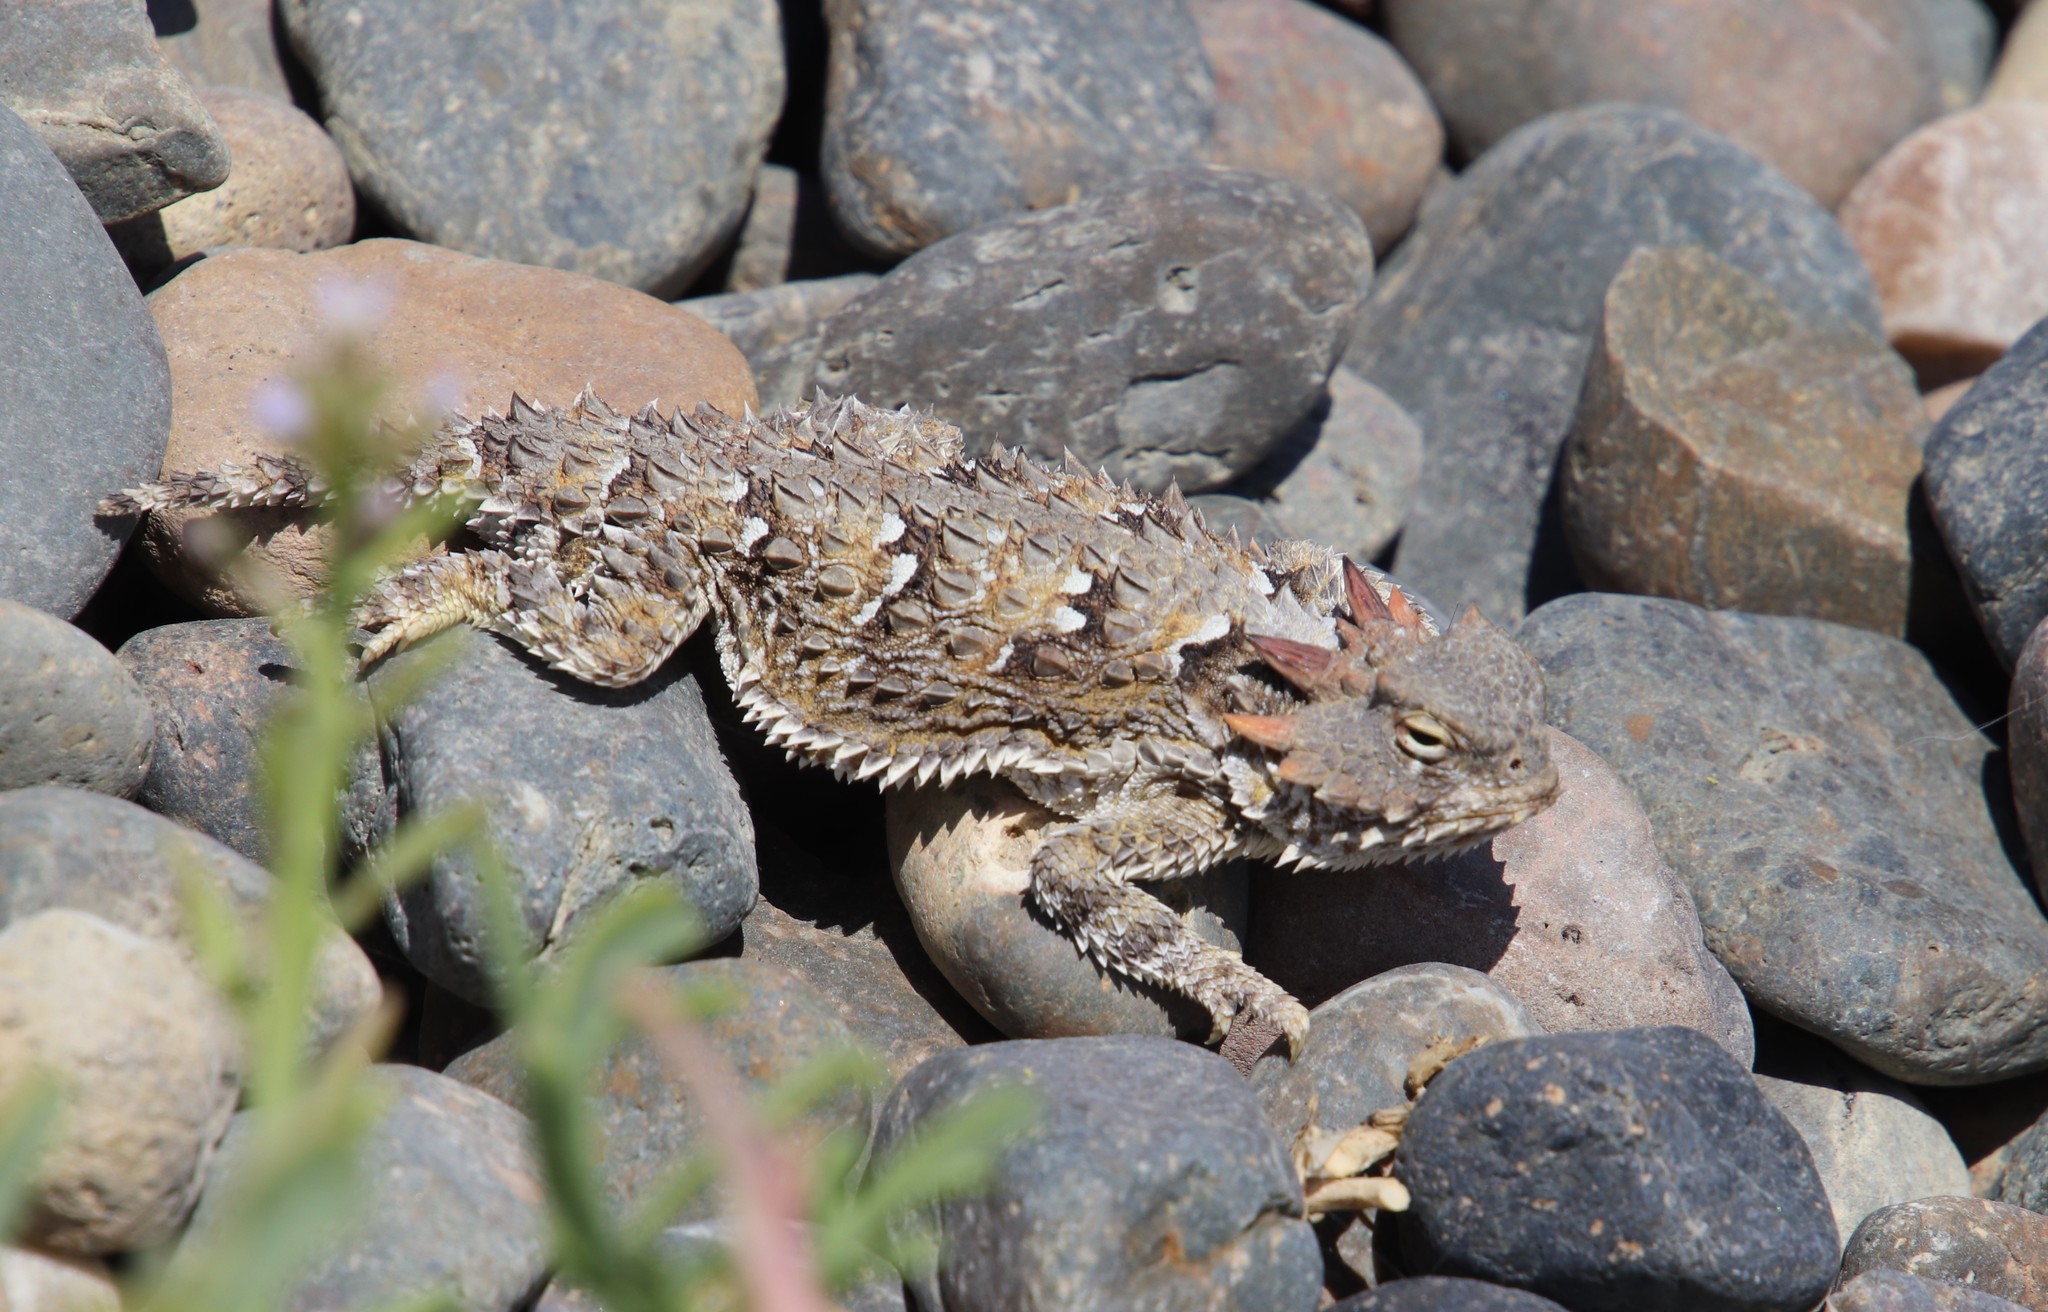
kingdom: Animalia
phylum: Chordata
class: Squamata
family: Phrynosomatidae
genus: Phrynosoma
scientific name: Phrynosoma blainvillii
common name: San diego horned lizard
